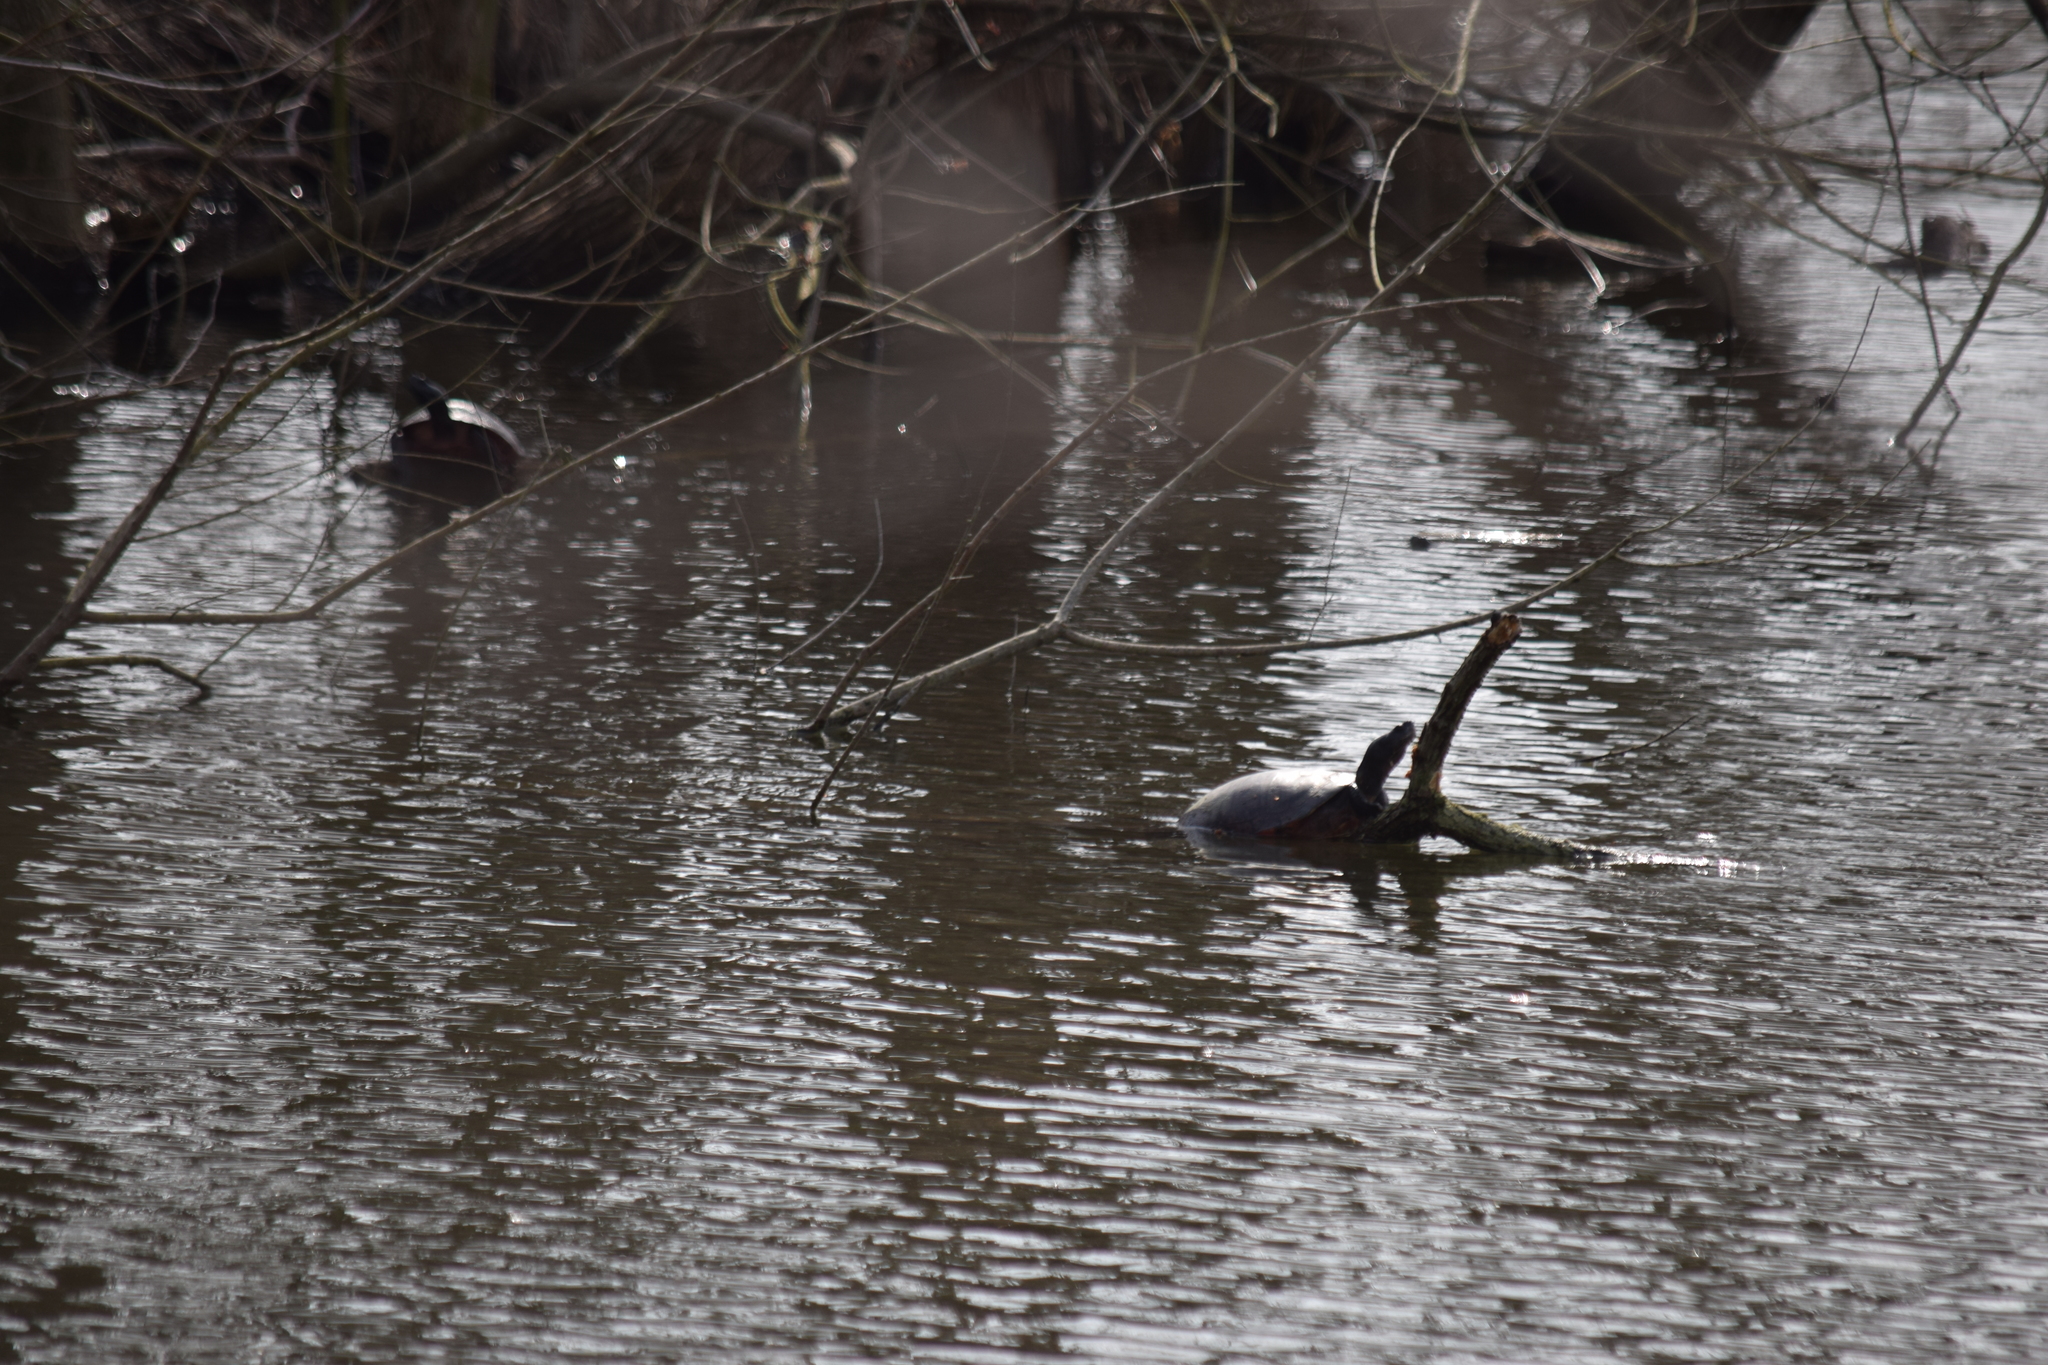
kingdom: Animalia
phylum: Chordata
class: Testudines
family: Emydidae
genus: Pseudemys
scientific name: Pseudemys rubriventris
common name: American red-bellied turtle
